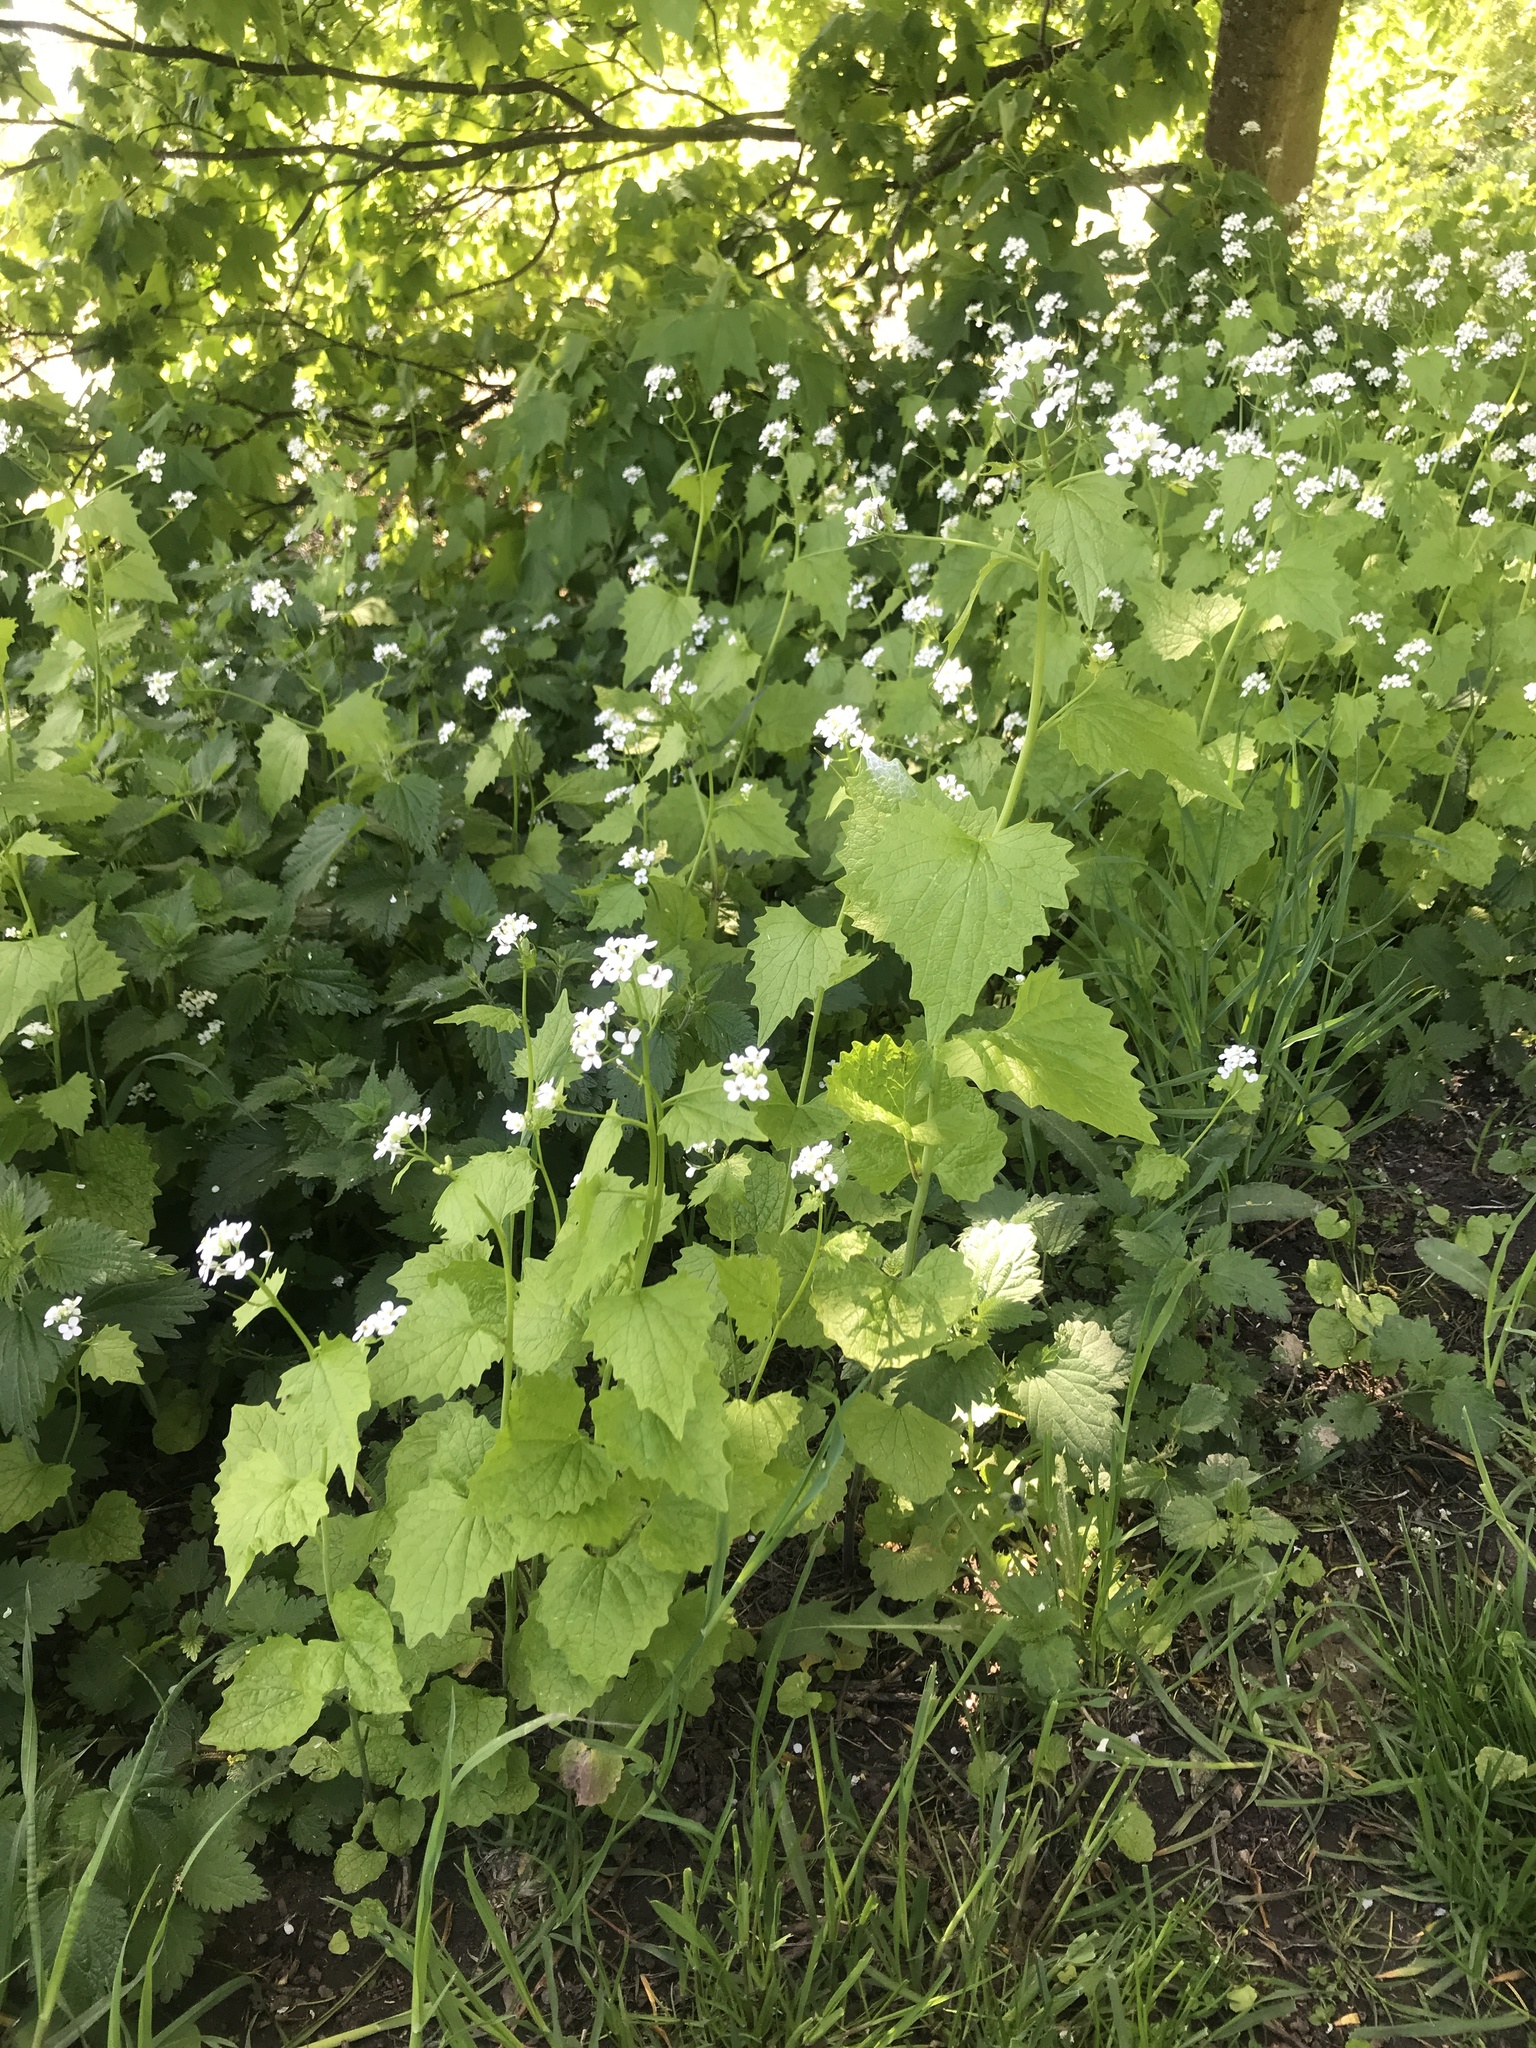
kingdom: Plantae
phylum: Tracheophyta
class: Magnoliopsida
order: Brassicales
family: Brassicaceae
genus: Alliaria
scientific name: Alliaria petiolata
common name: Garlic mustard
